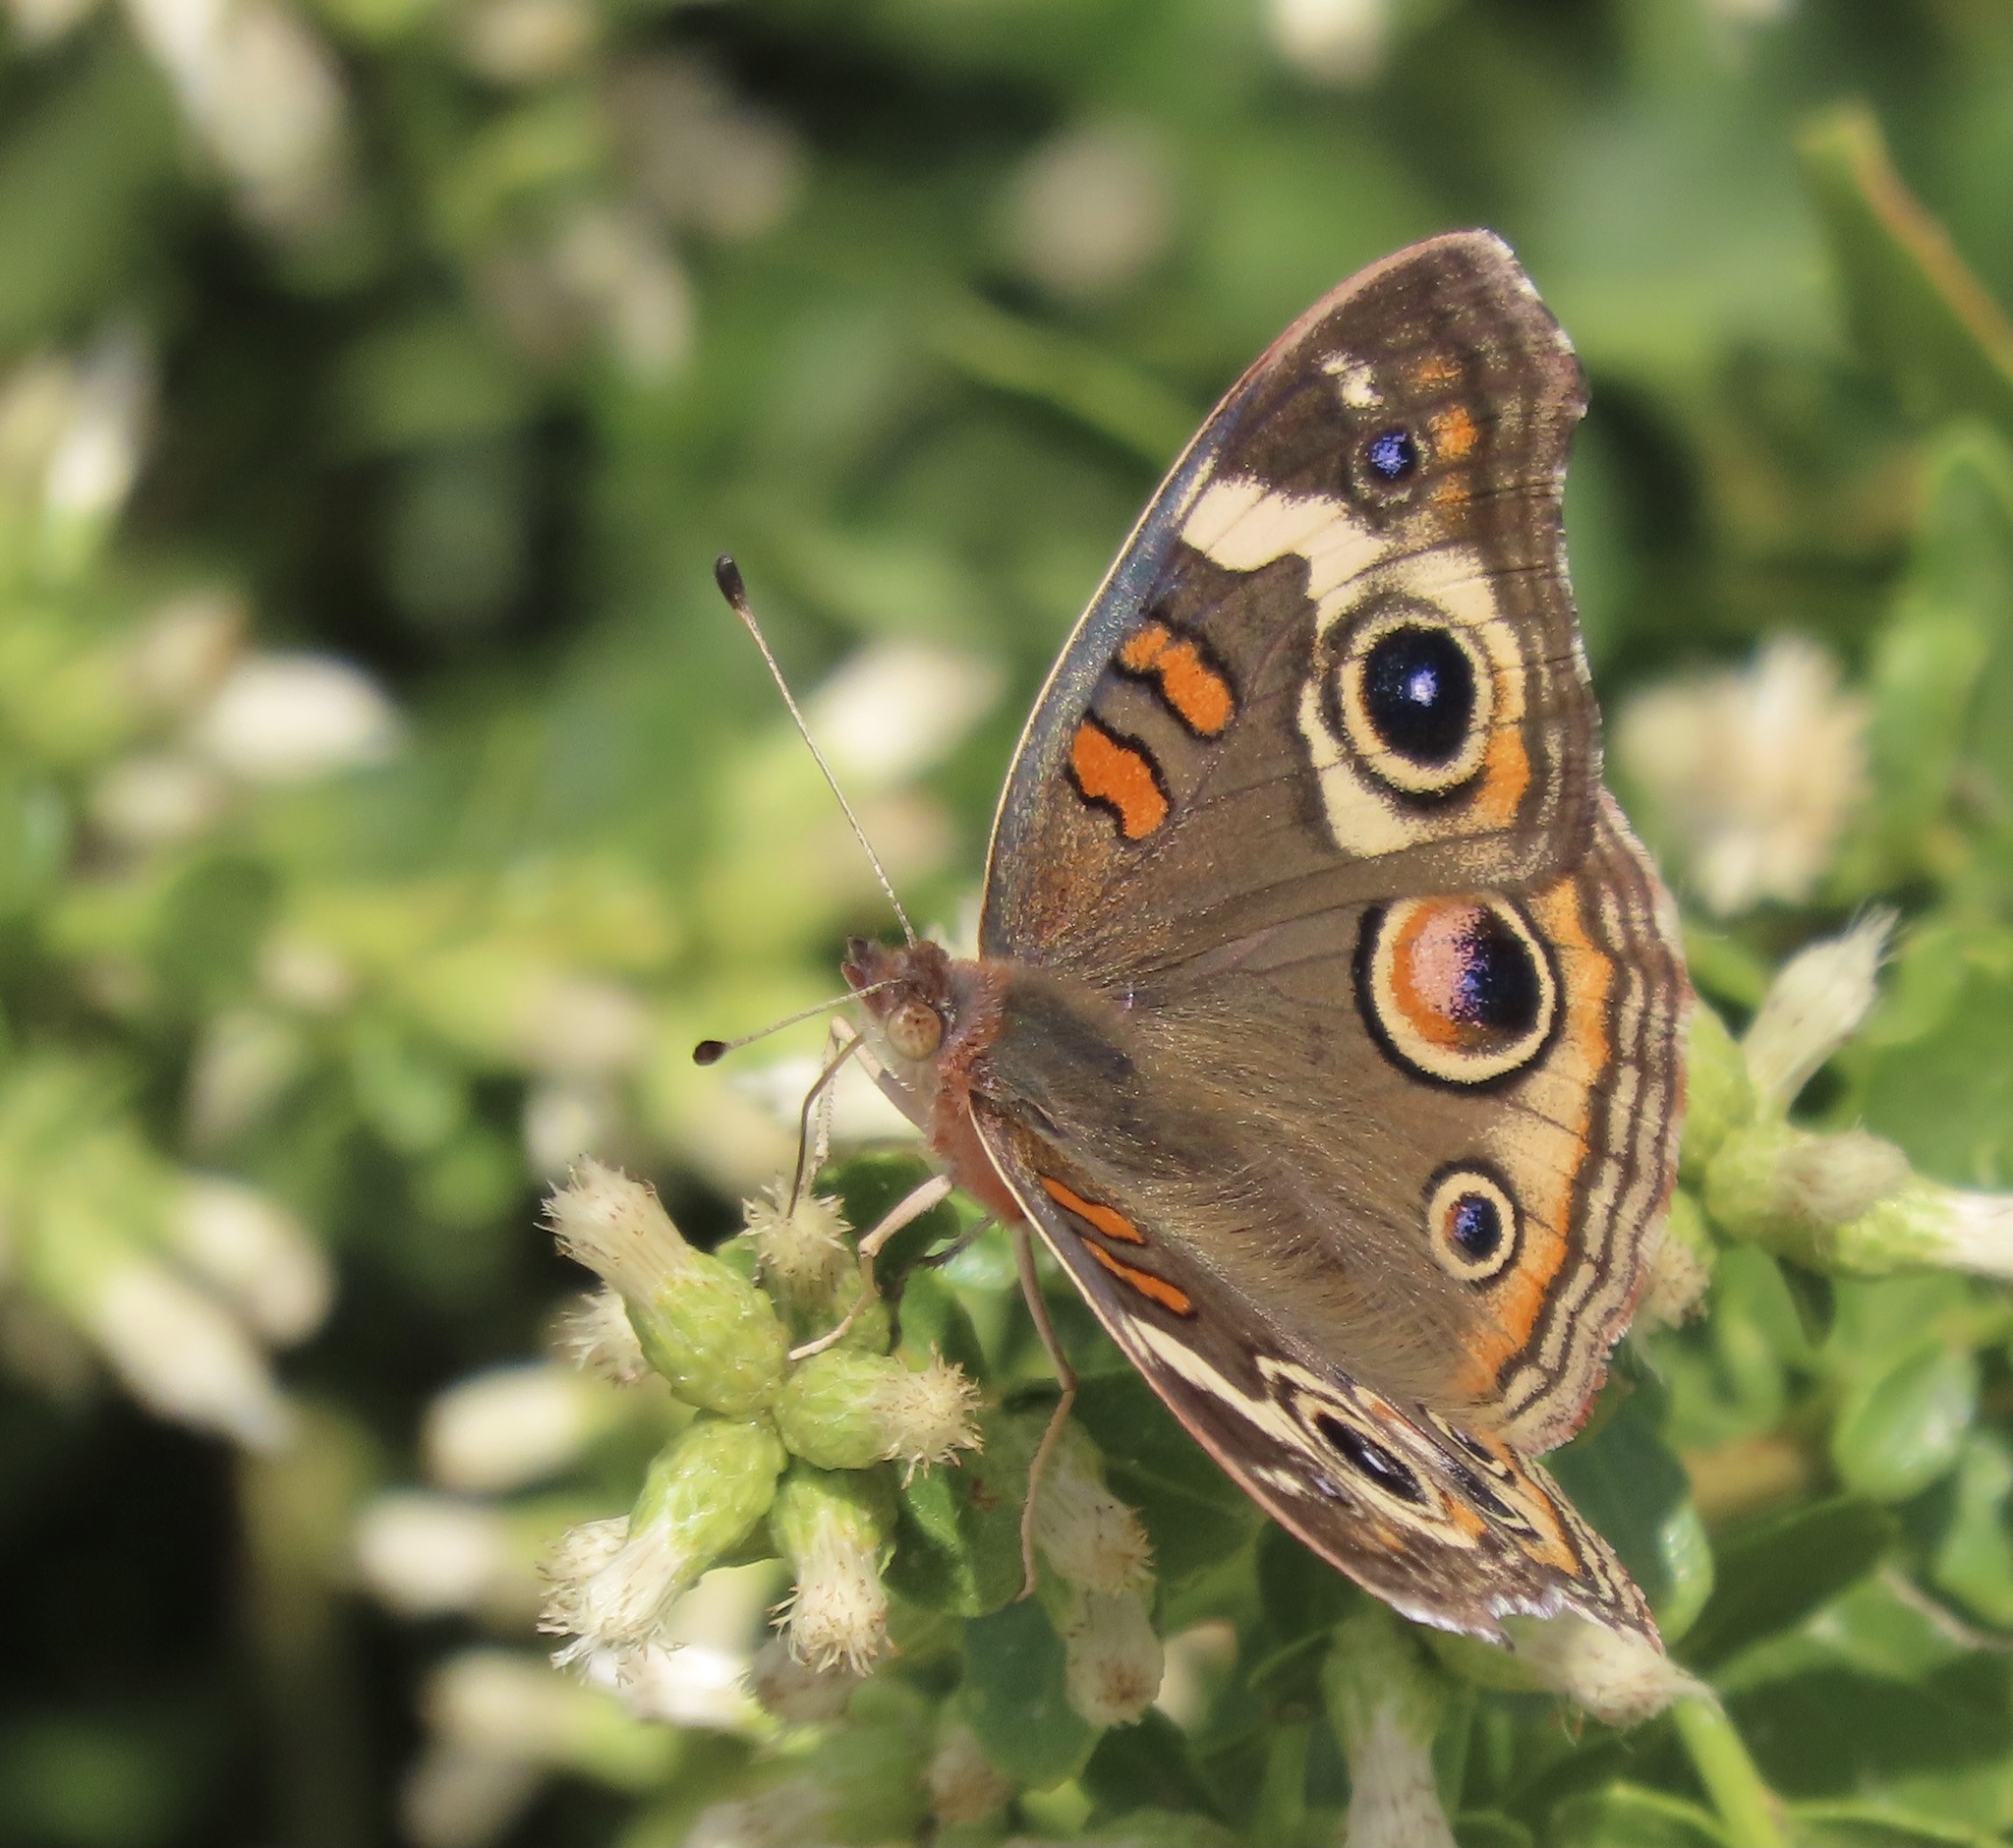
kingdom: Animalia
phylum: Arthropoda
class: Insecta
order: Lepidoptera
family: Nymphalidae
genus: Junonia
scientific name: Junonia grisea
